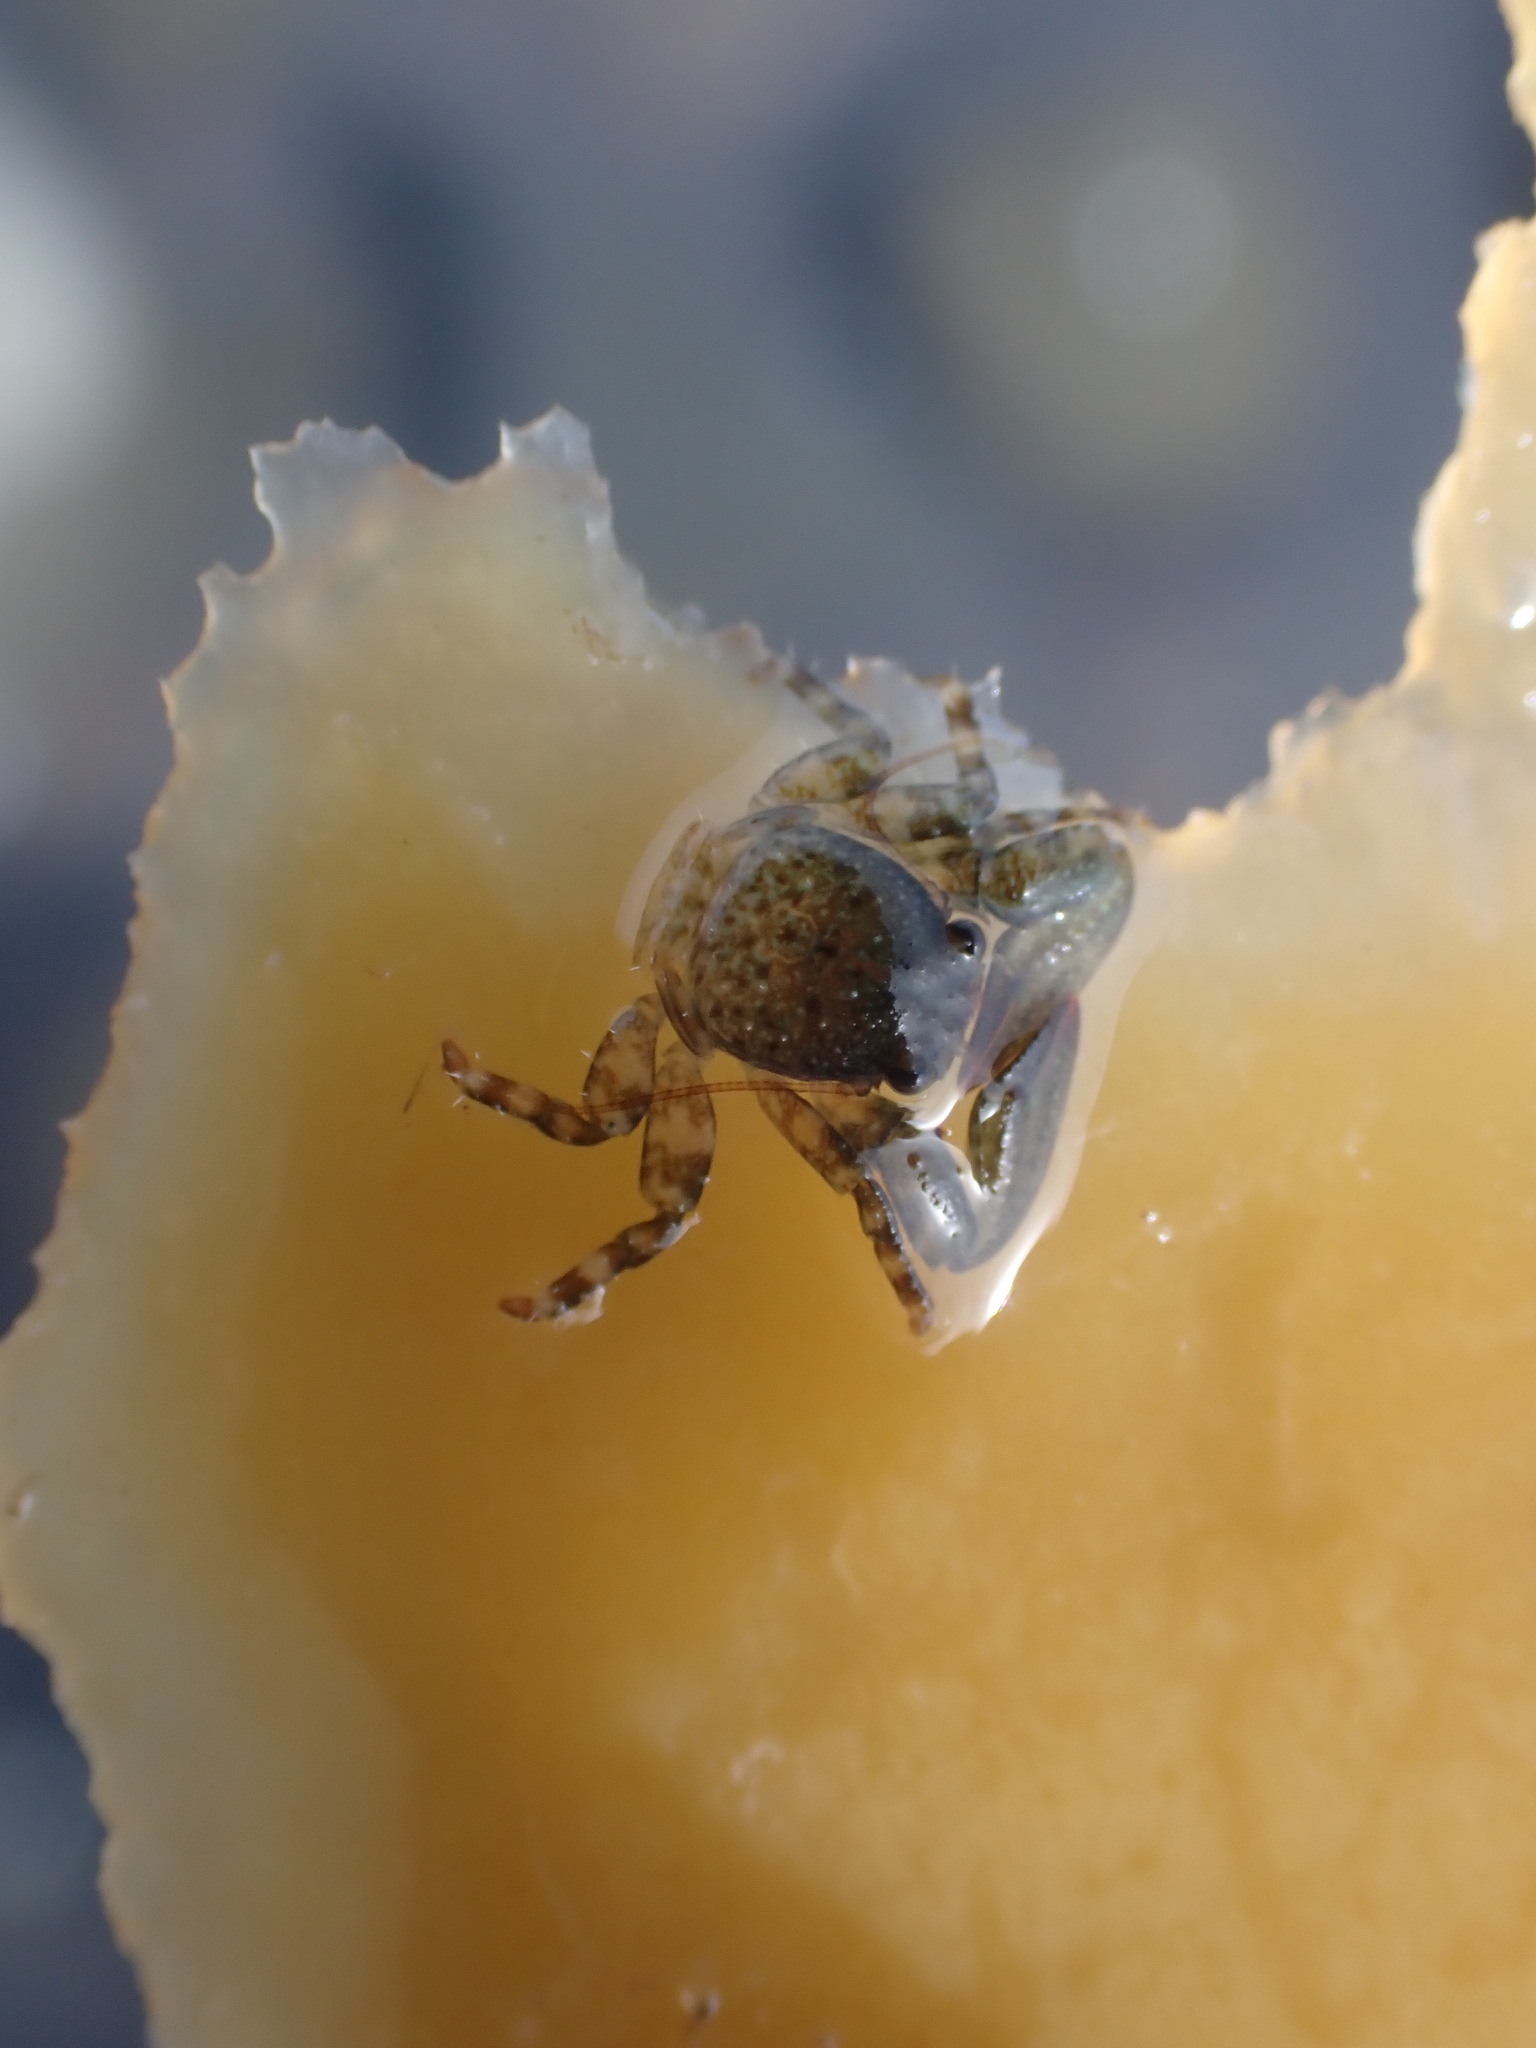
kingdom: Animalia
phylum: Arthropoda
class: Malacostraca
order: Decapoda
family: Porcellanidae
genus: Petrolisthes
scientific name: Petrolisthes elongatus
